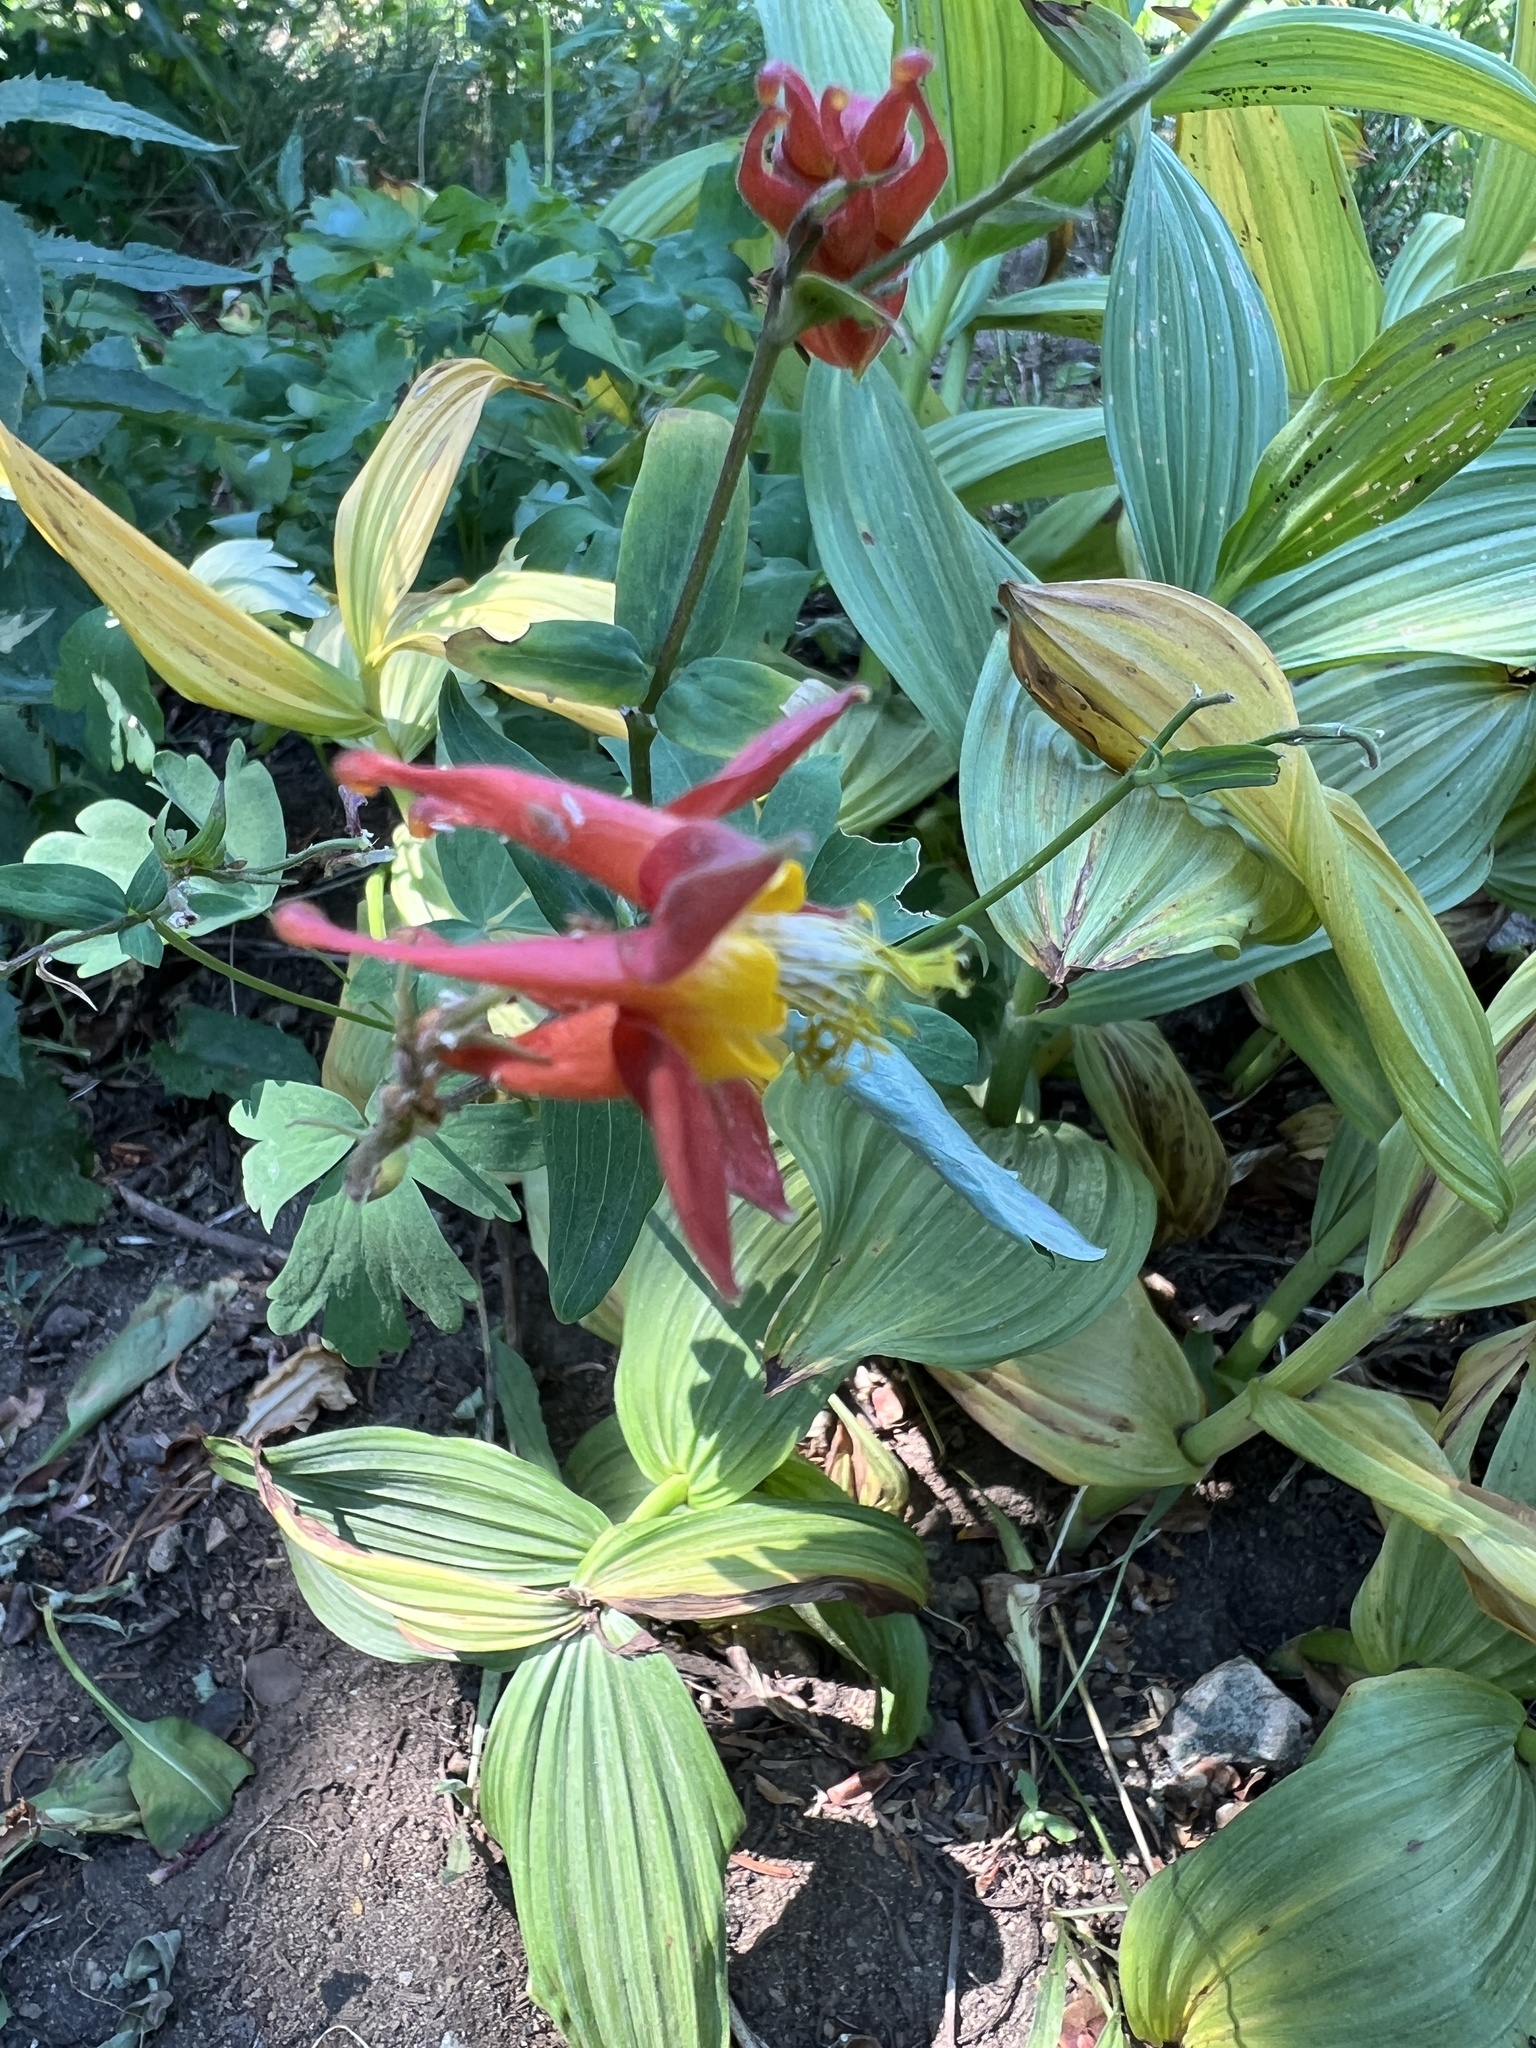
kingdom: Plantae
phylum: Tracheophyta
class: Magnoliopsida
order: Ranunculales
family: Ranunculaceae
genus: Aquilegia
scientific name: Aquilegia formosa
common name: Sitka columbine
